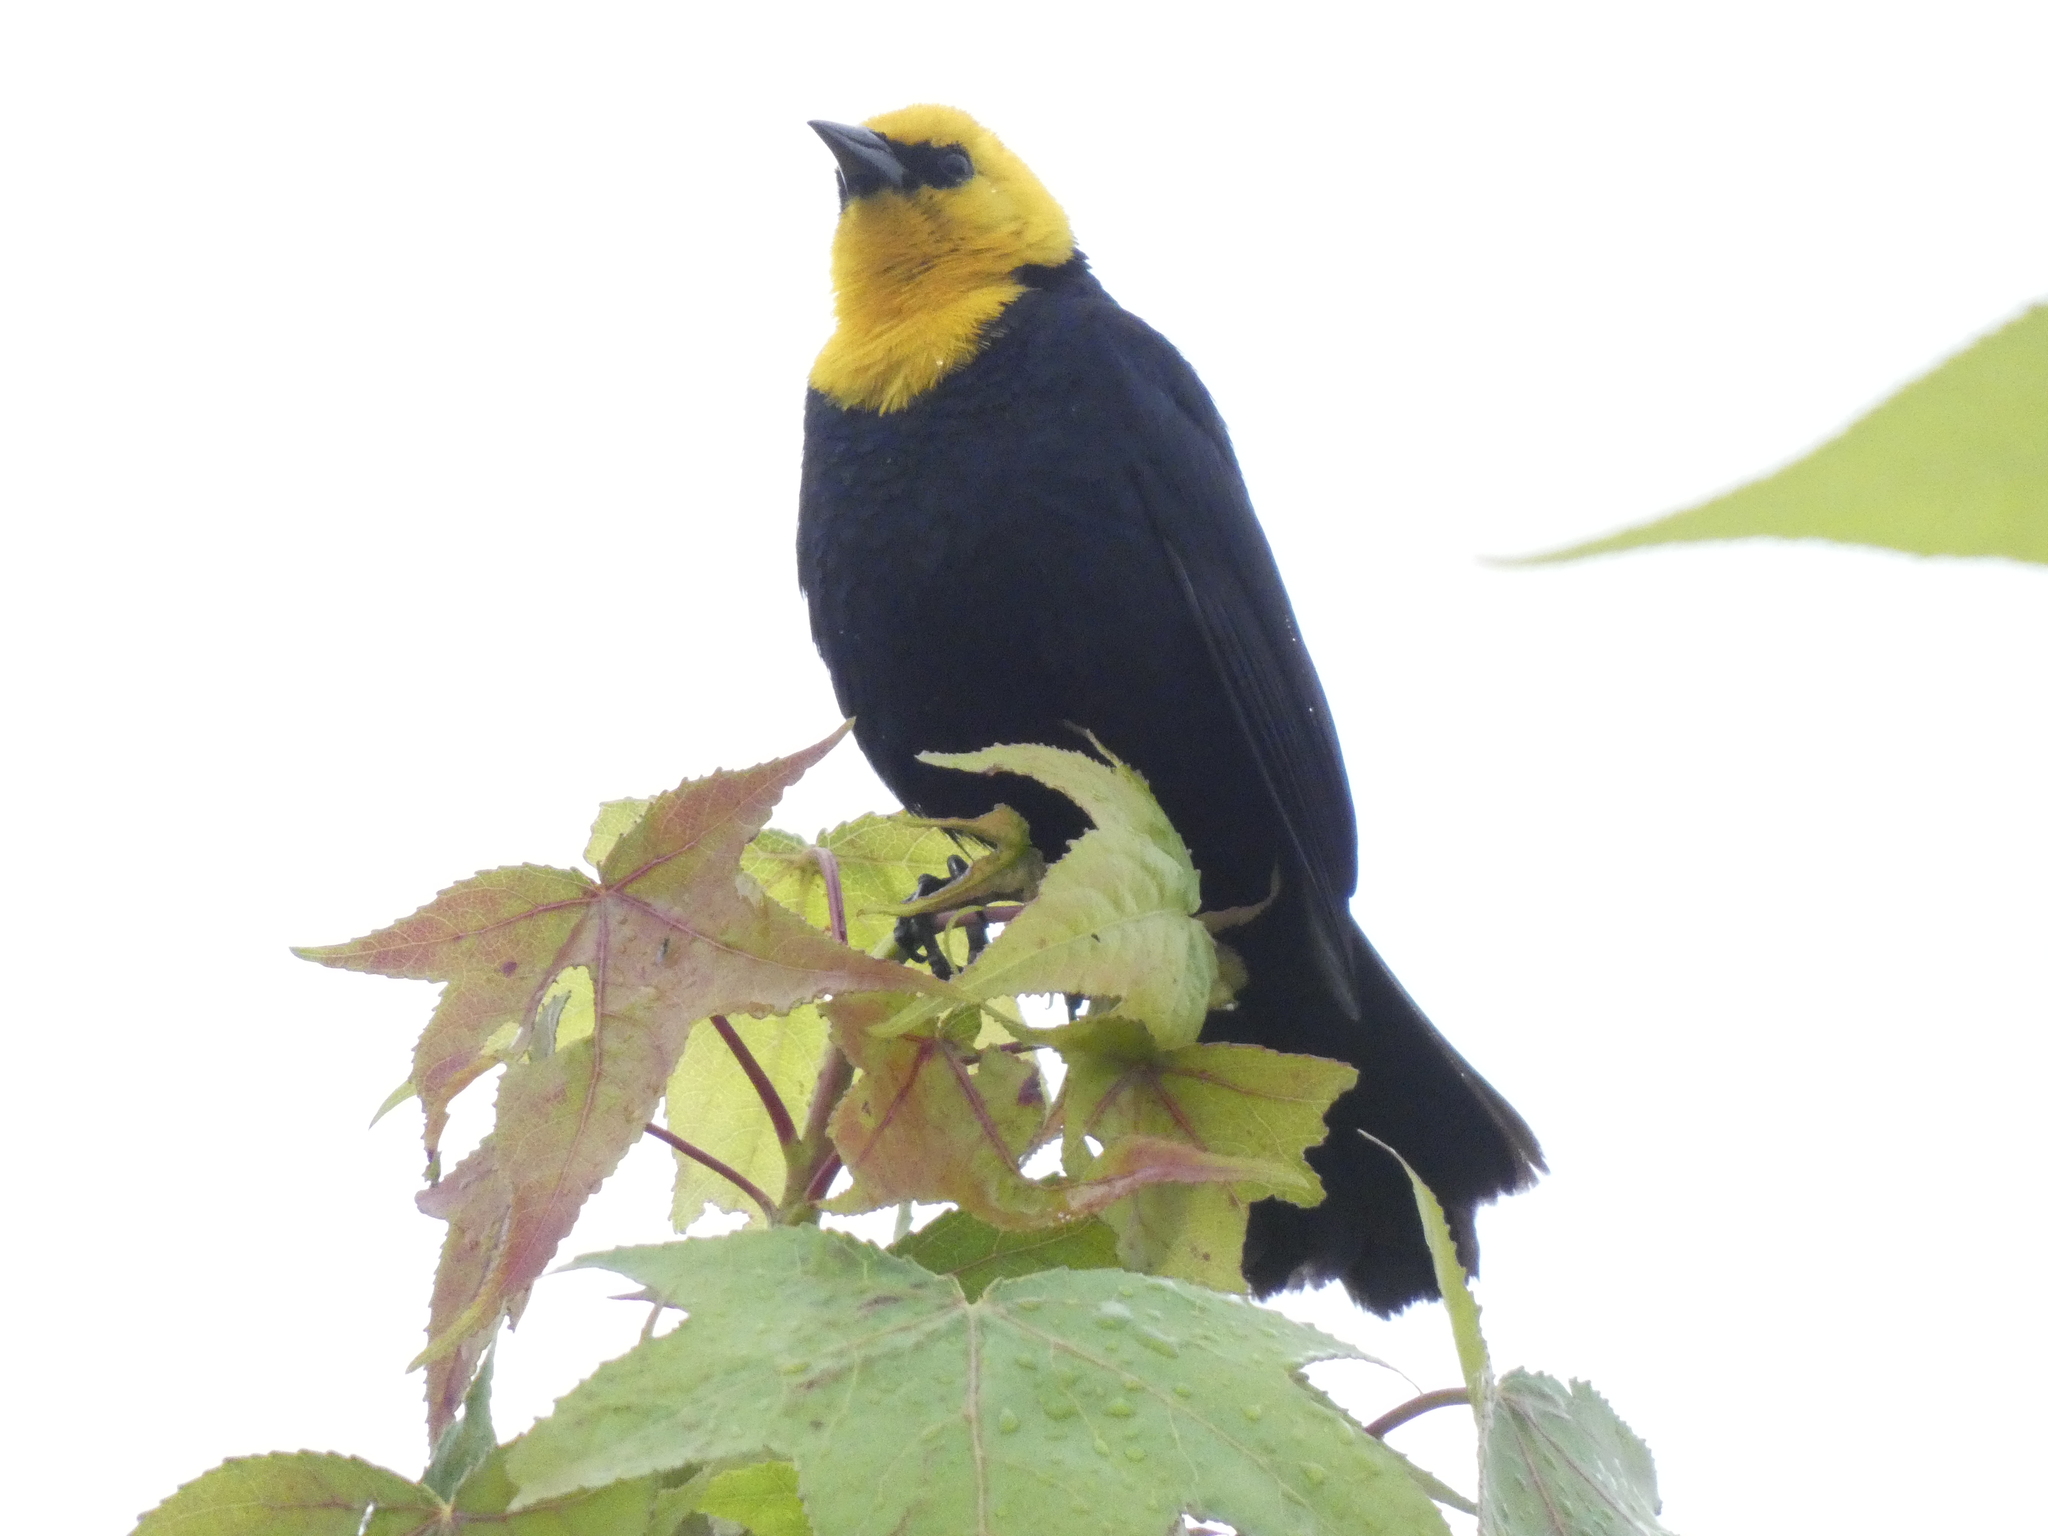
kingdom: Animalia
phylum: Chordata
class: Aves
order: Passeriformes
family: Icteridae
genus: Chrysomus
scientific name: Chrysomus icterocephalus
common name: Yellow-hooded blackbird
